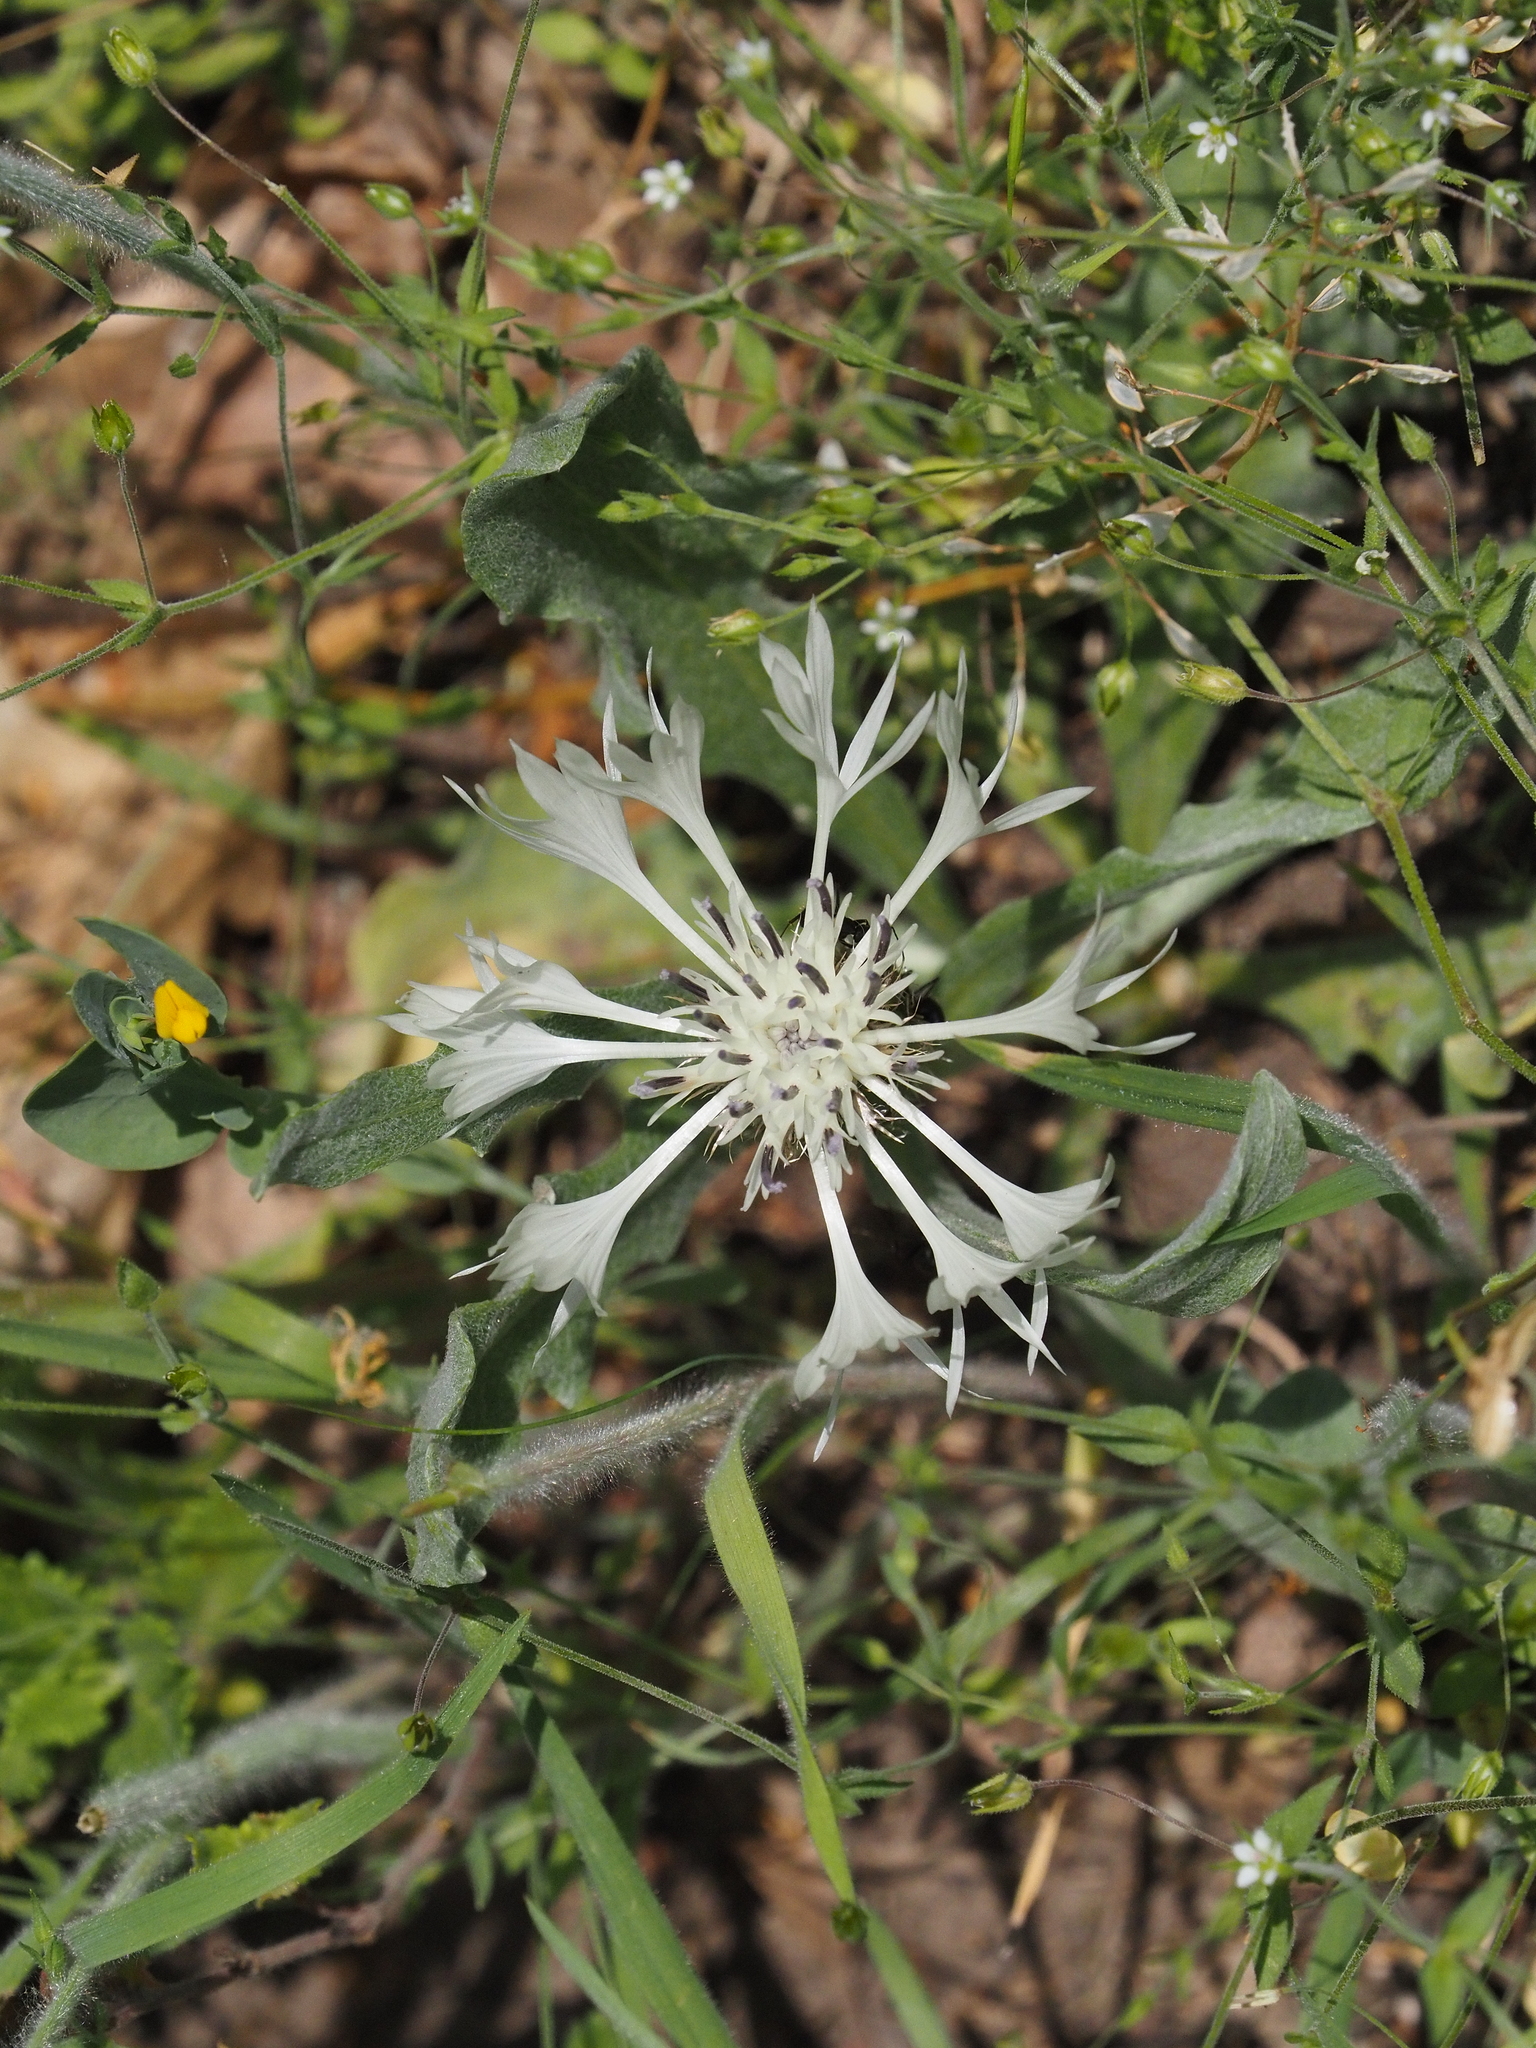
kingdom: Plantae
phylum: Tracheophyta
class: Magnoliopsida
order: Asterales
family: Asteraceae
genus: Centaurea
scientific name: Centaurea thirkei
